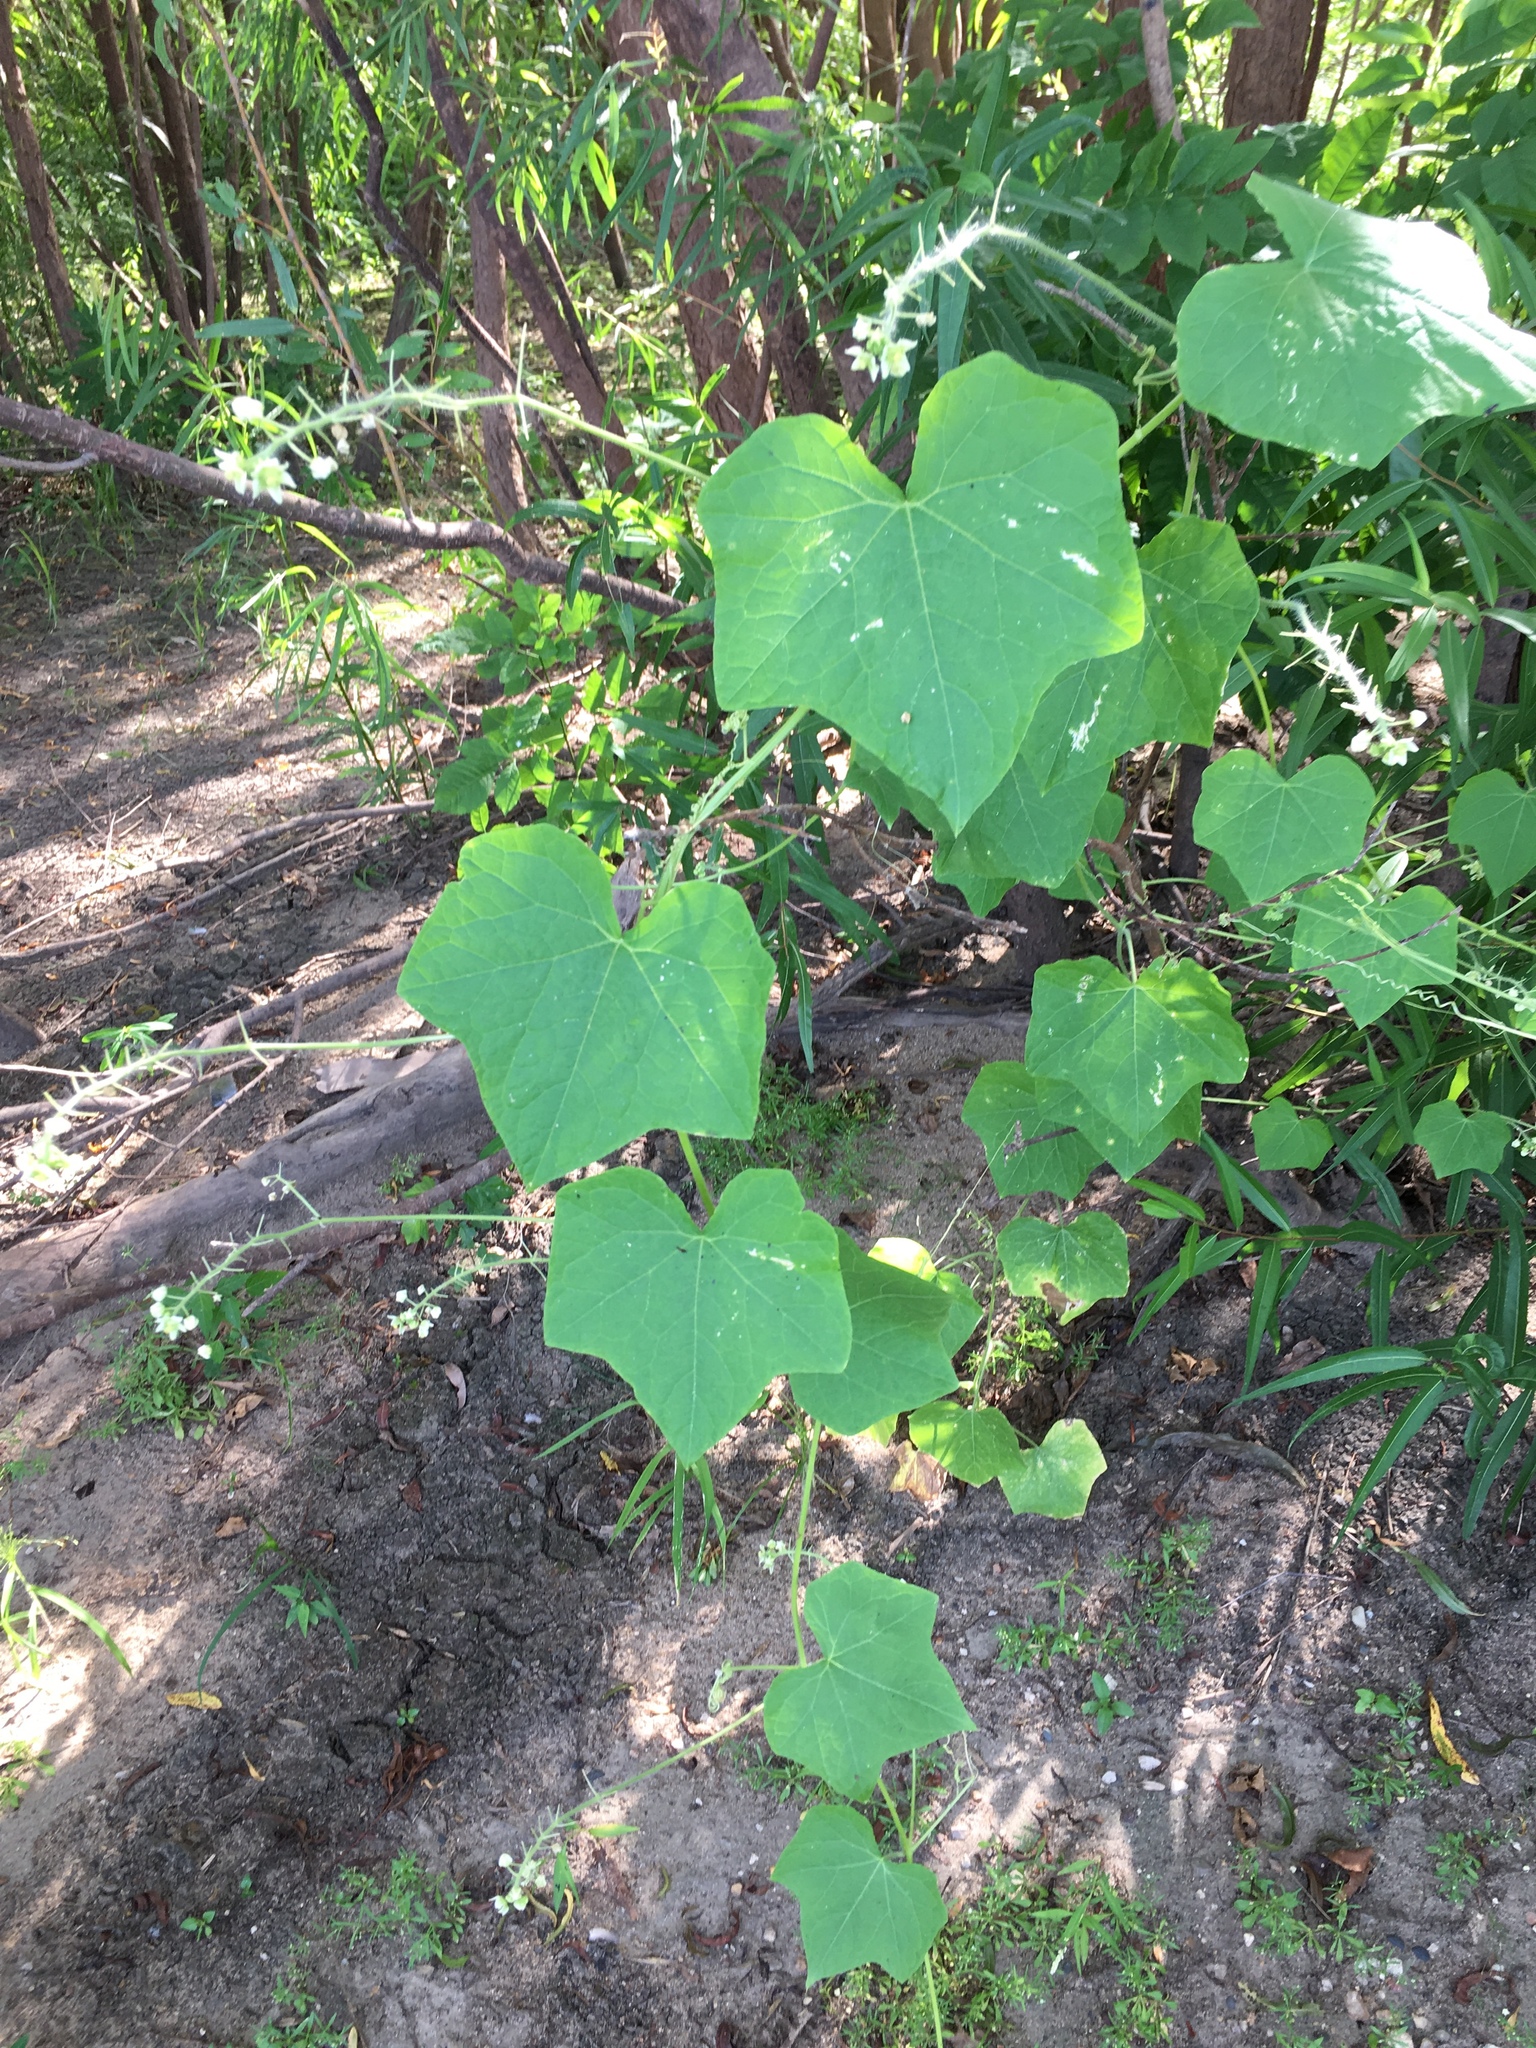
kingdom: Plantae
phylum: Tracheophyta
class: Magnoliopsida
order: Cucurbitales
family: Cucurbitaceae
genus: Sicyos
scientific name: Sicyos angulatus
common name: Angled burr cucumber
